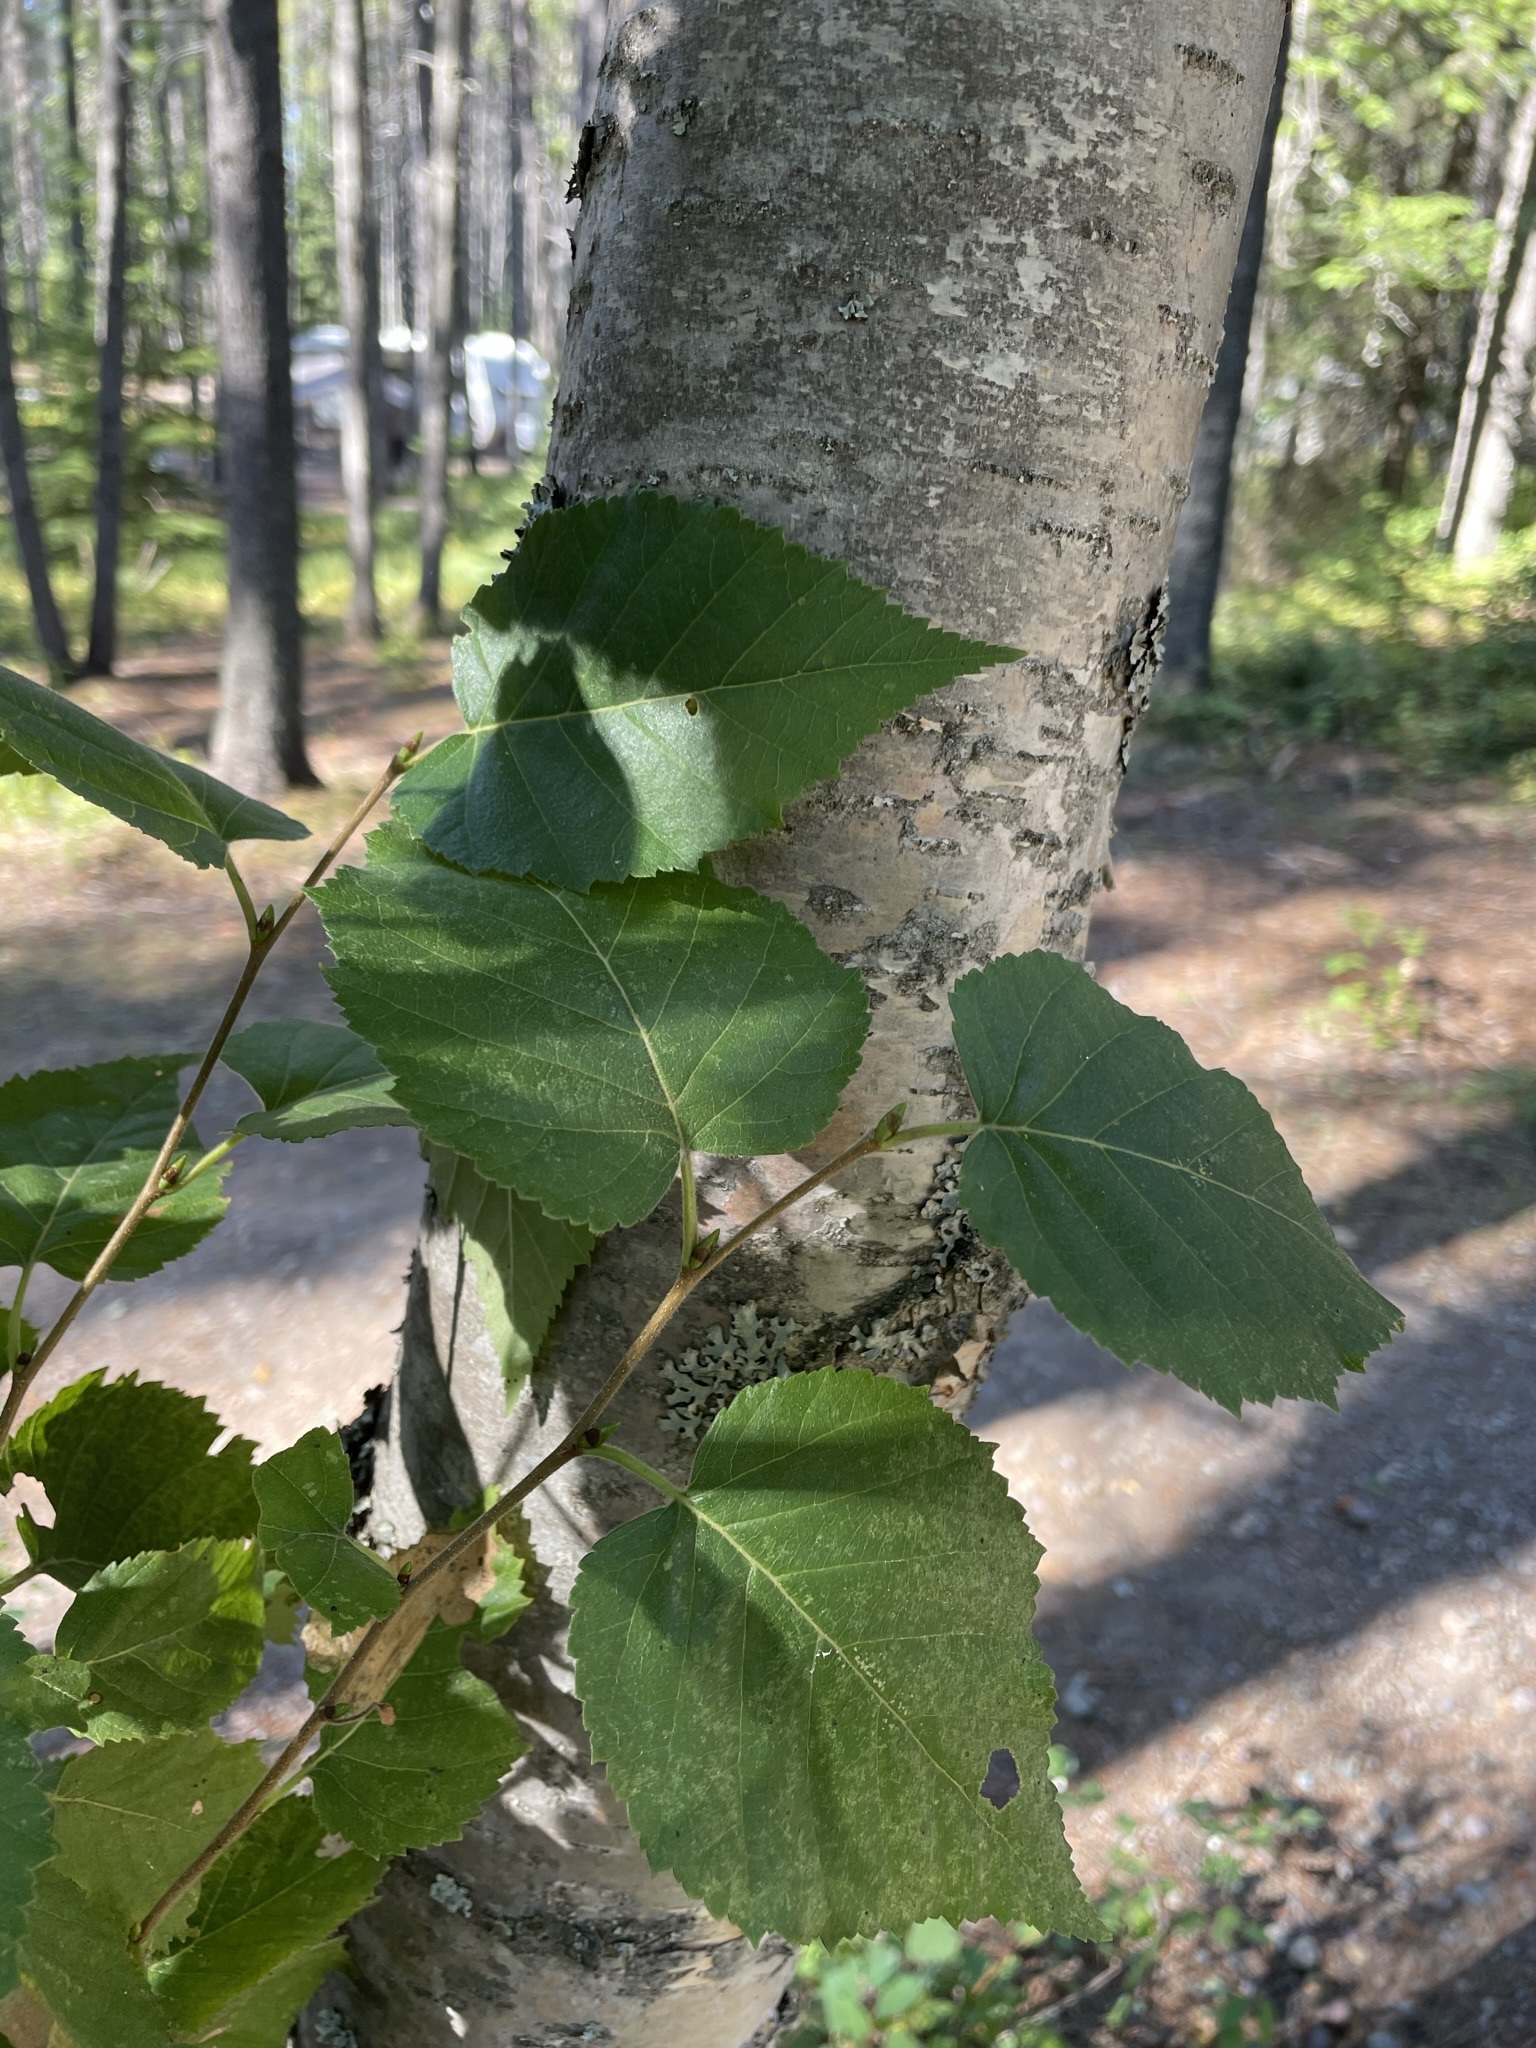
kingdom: Plantae
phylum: Tracheophyta
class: Magnoliopsida
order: Fagales
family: Betulaceae
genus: Betula
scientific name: Betula papyrifera
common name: Paper birch
